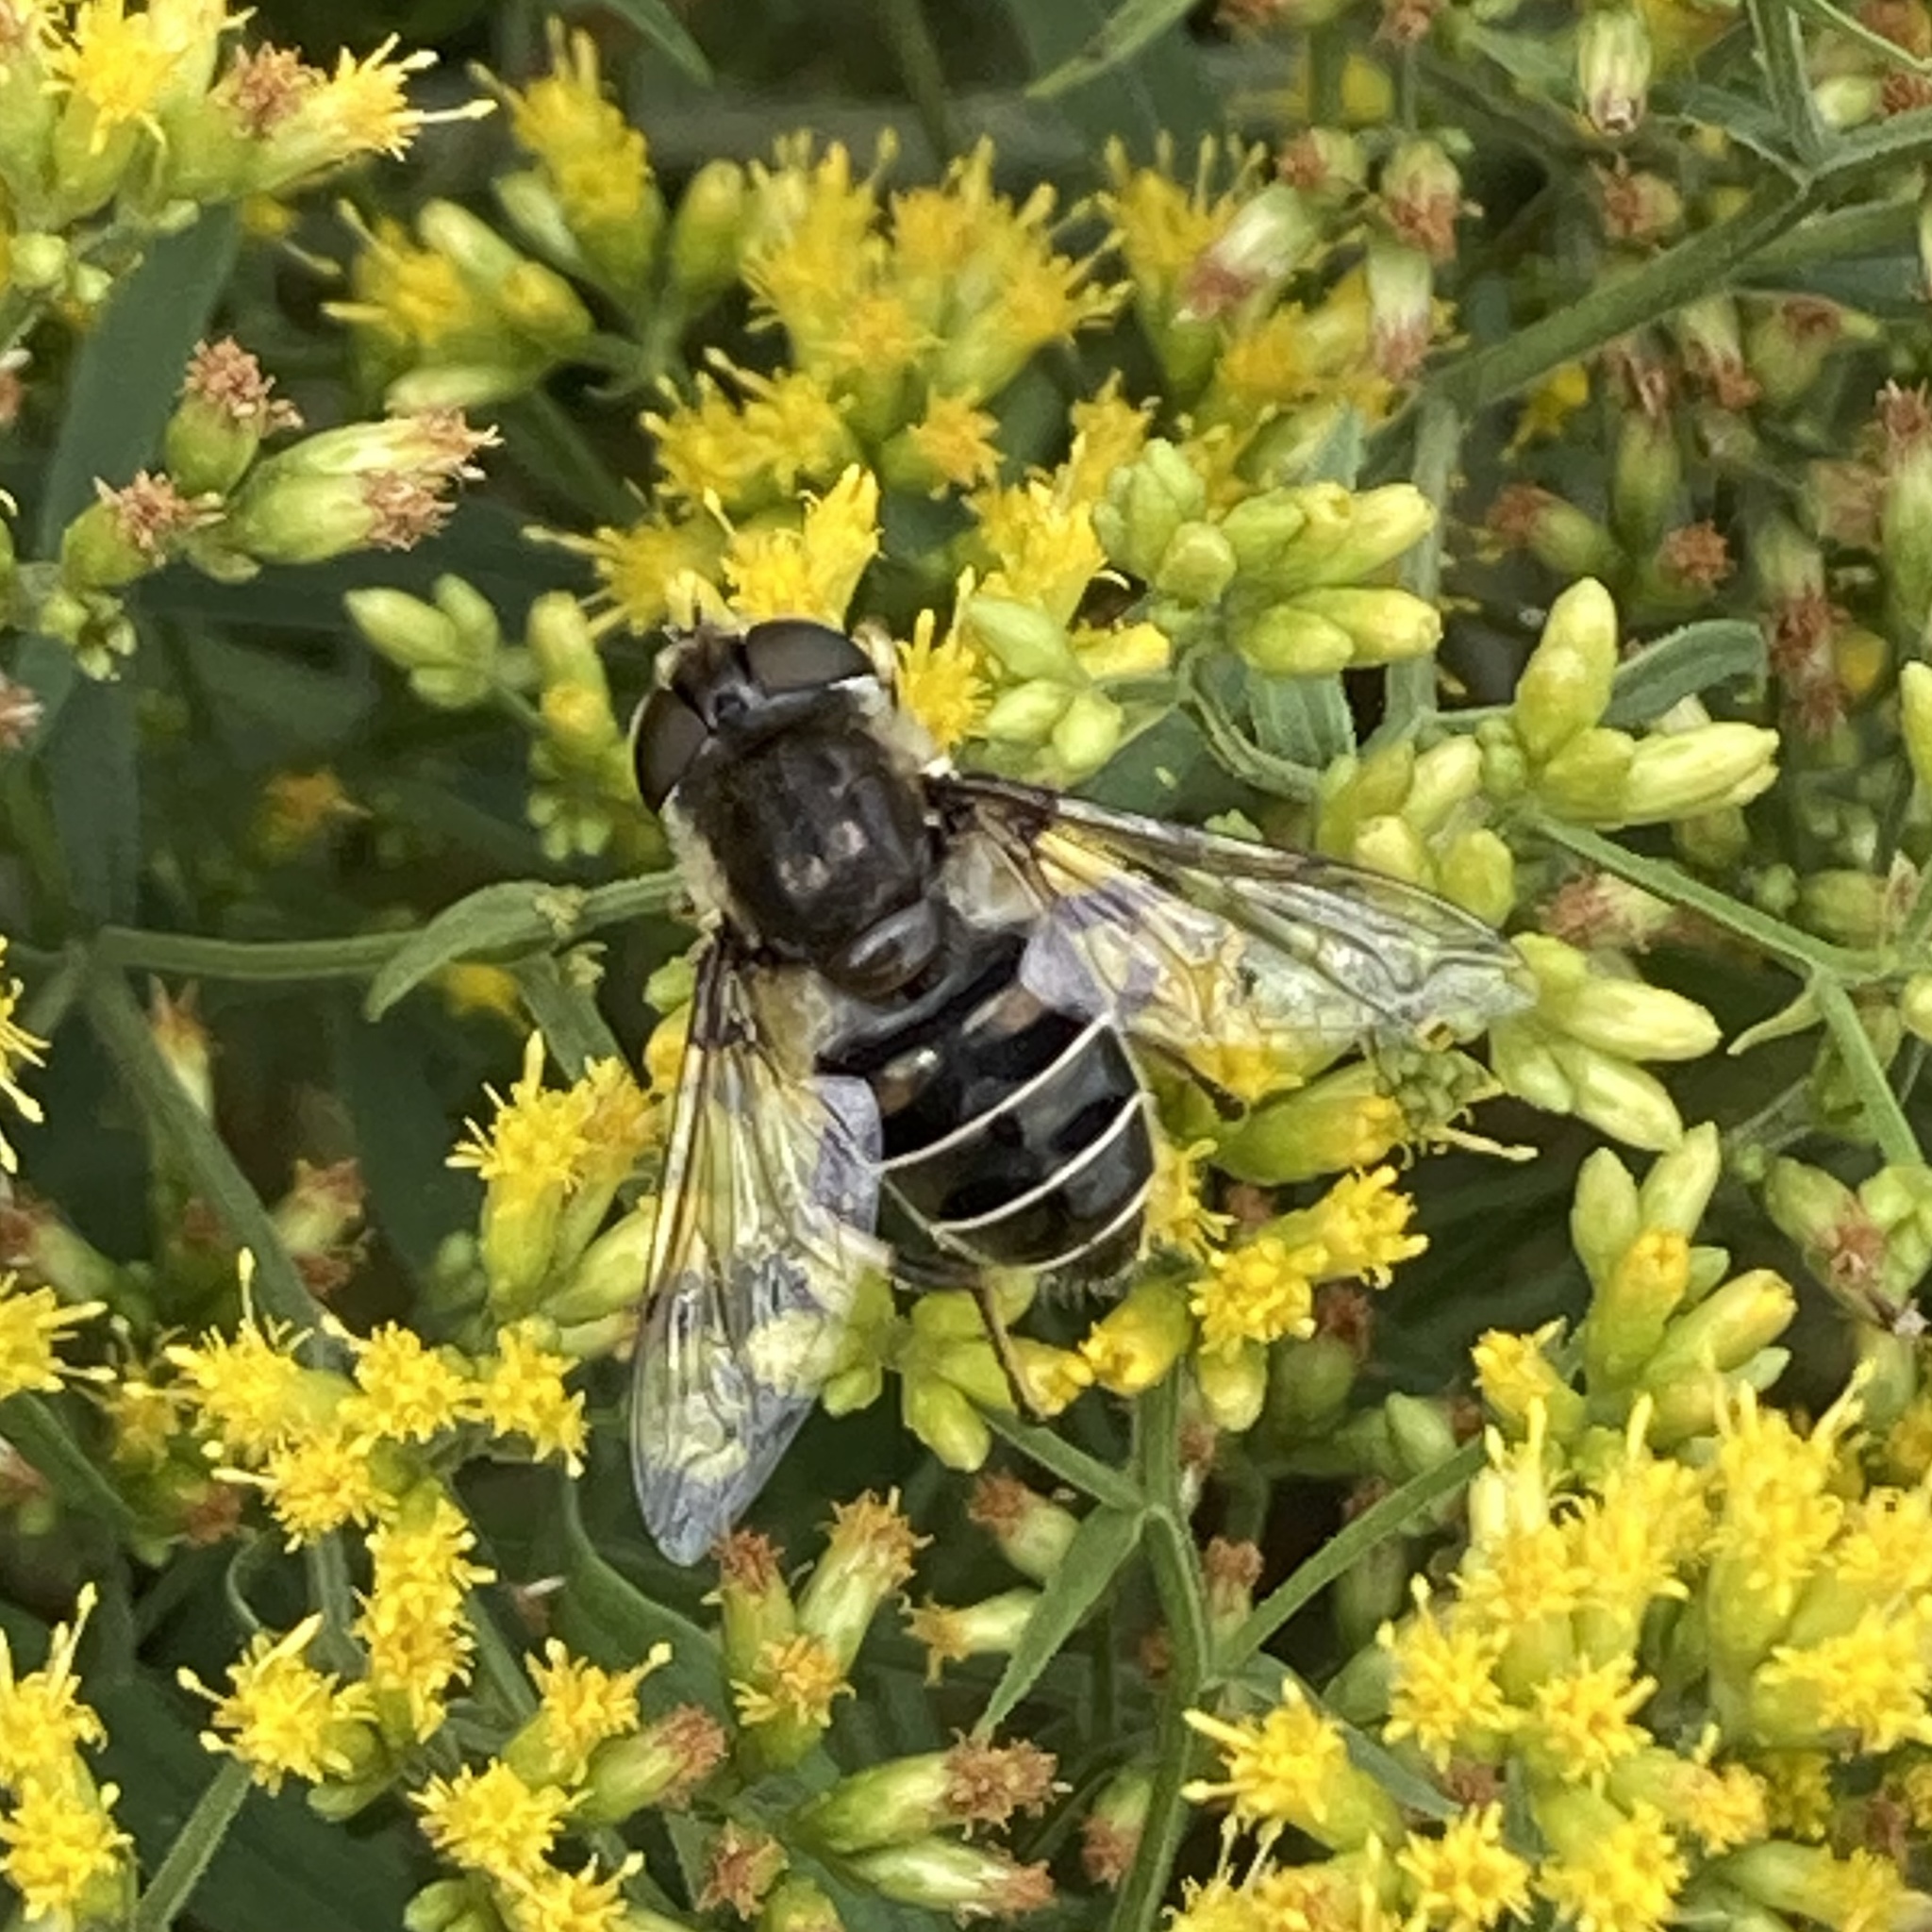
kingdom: Animalia
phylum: Arthropoda
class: Insecta
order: Diptera
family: Syrphidae
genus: Eristalis
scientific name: Eristalis dimidiata
